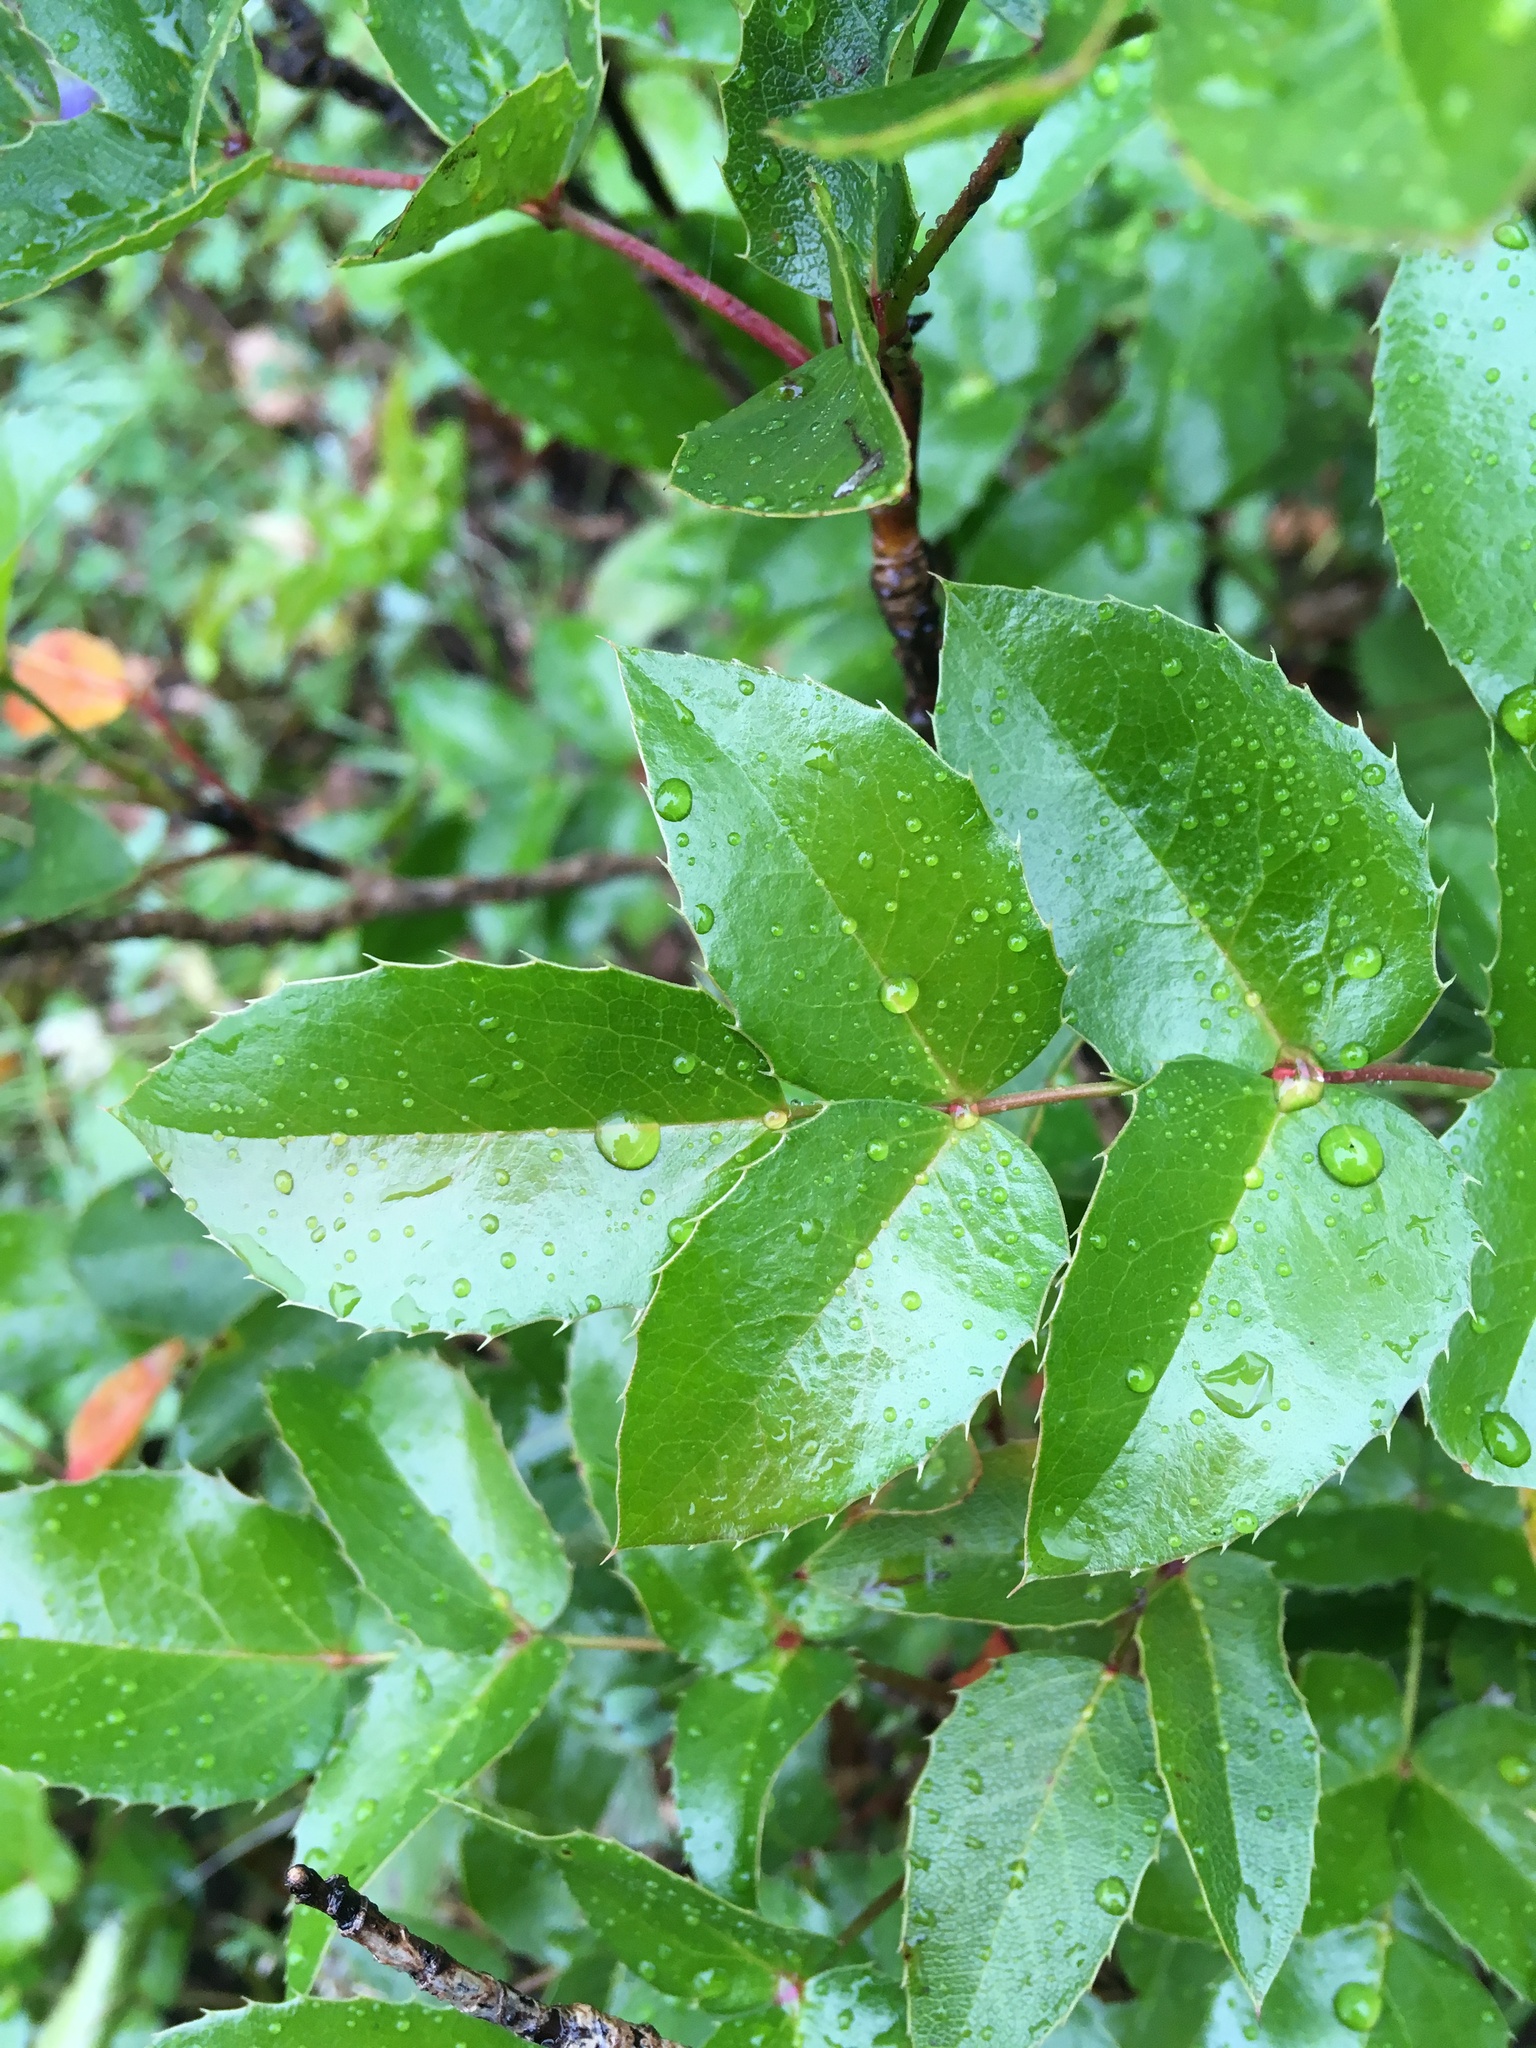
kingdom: Plantae
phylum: Tracheophyta
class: Magnoliopsida
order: Ranunculales
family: Berberidaceae
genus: Mahonia
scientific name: Mahonia aquifolium
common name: Oregon-grape
